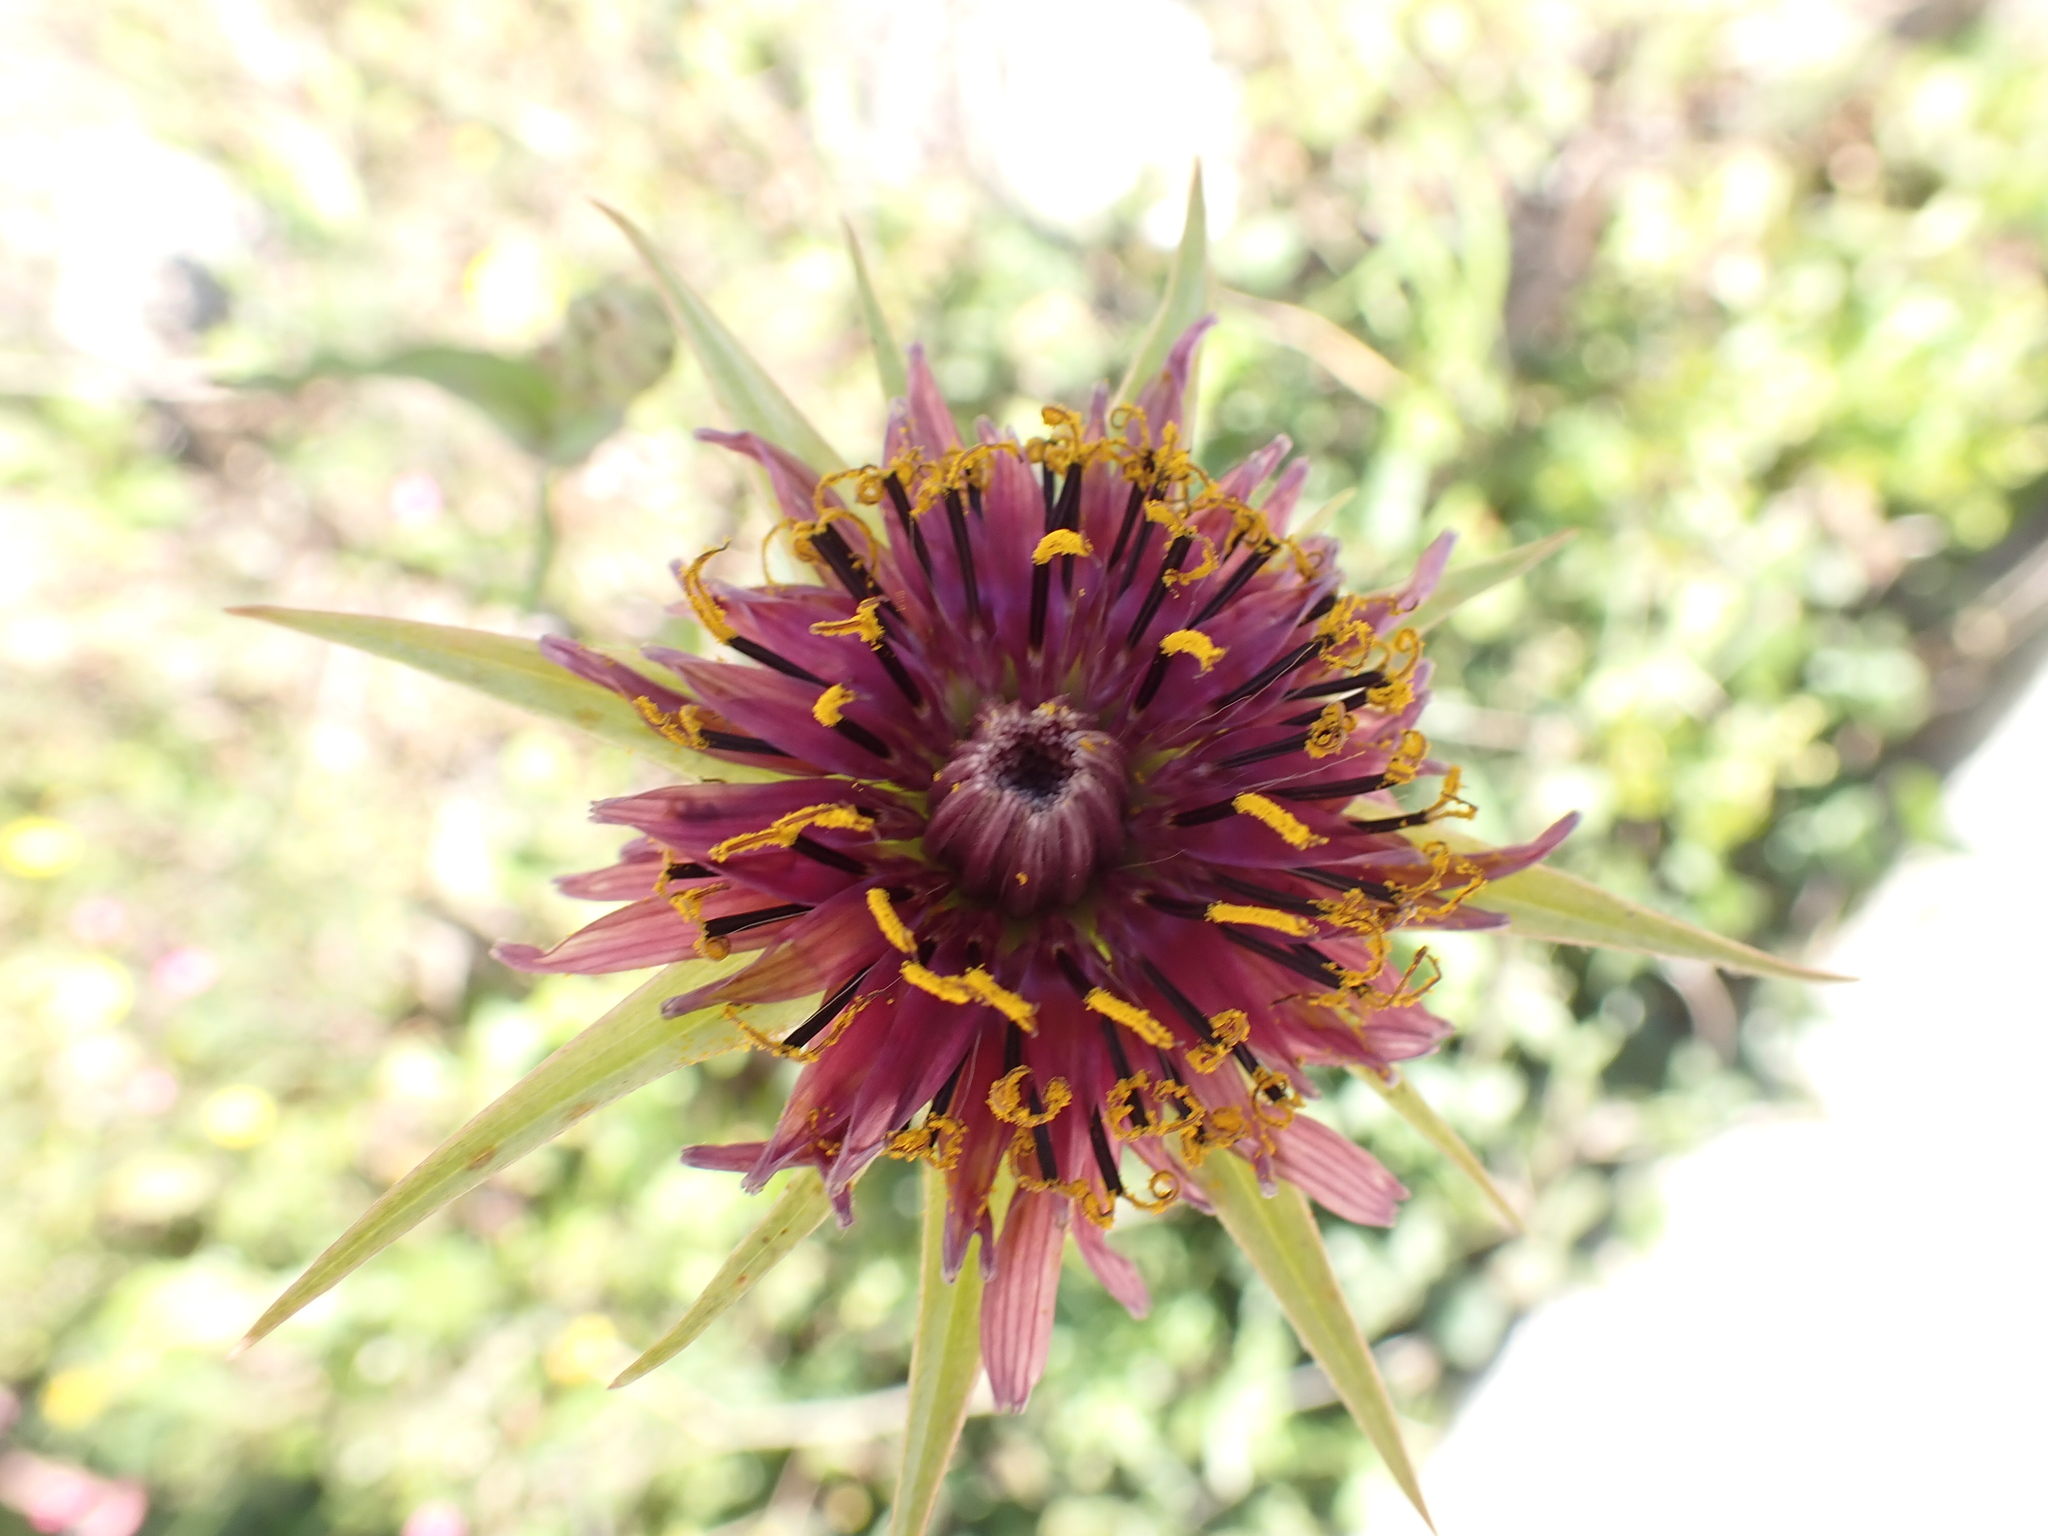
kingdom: Plantae
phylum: Tracheophyta
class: Magnoliopsida
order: Asterales
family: Asteraceae
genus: Tragopogon
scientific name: Tragopogon porrifolius
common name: Salsify
